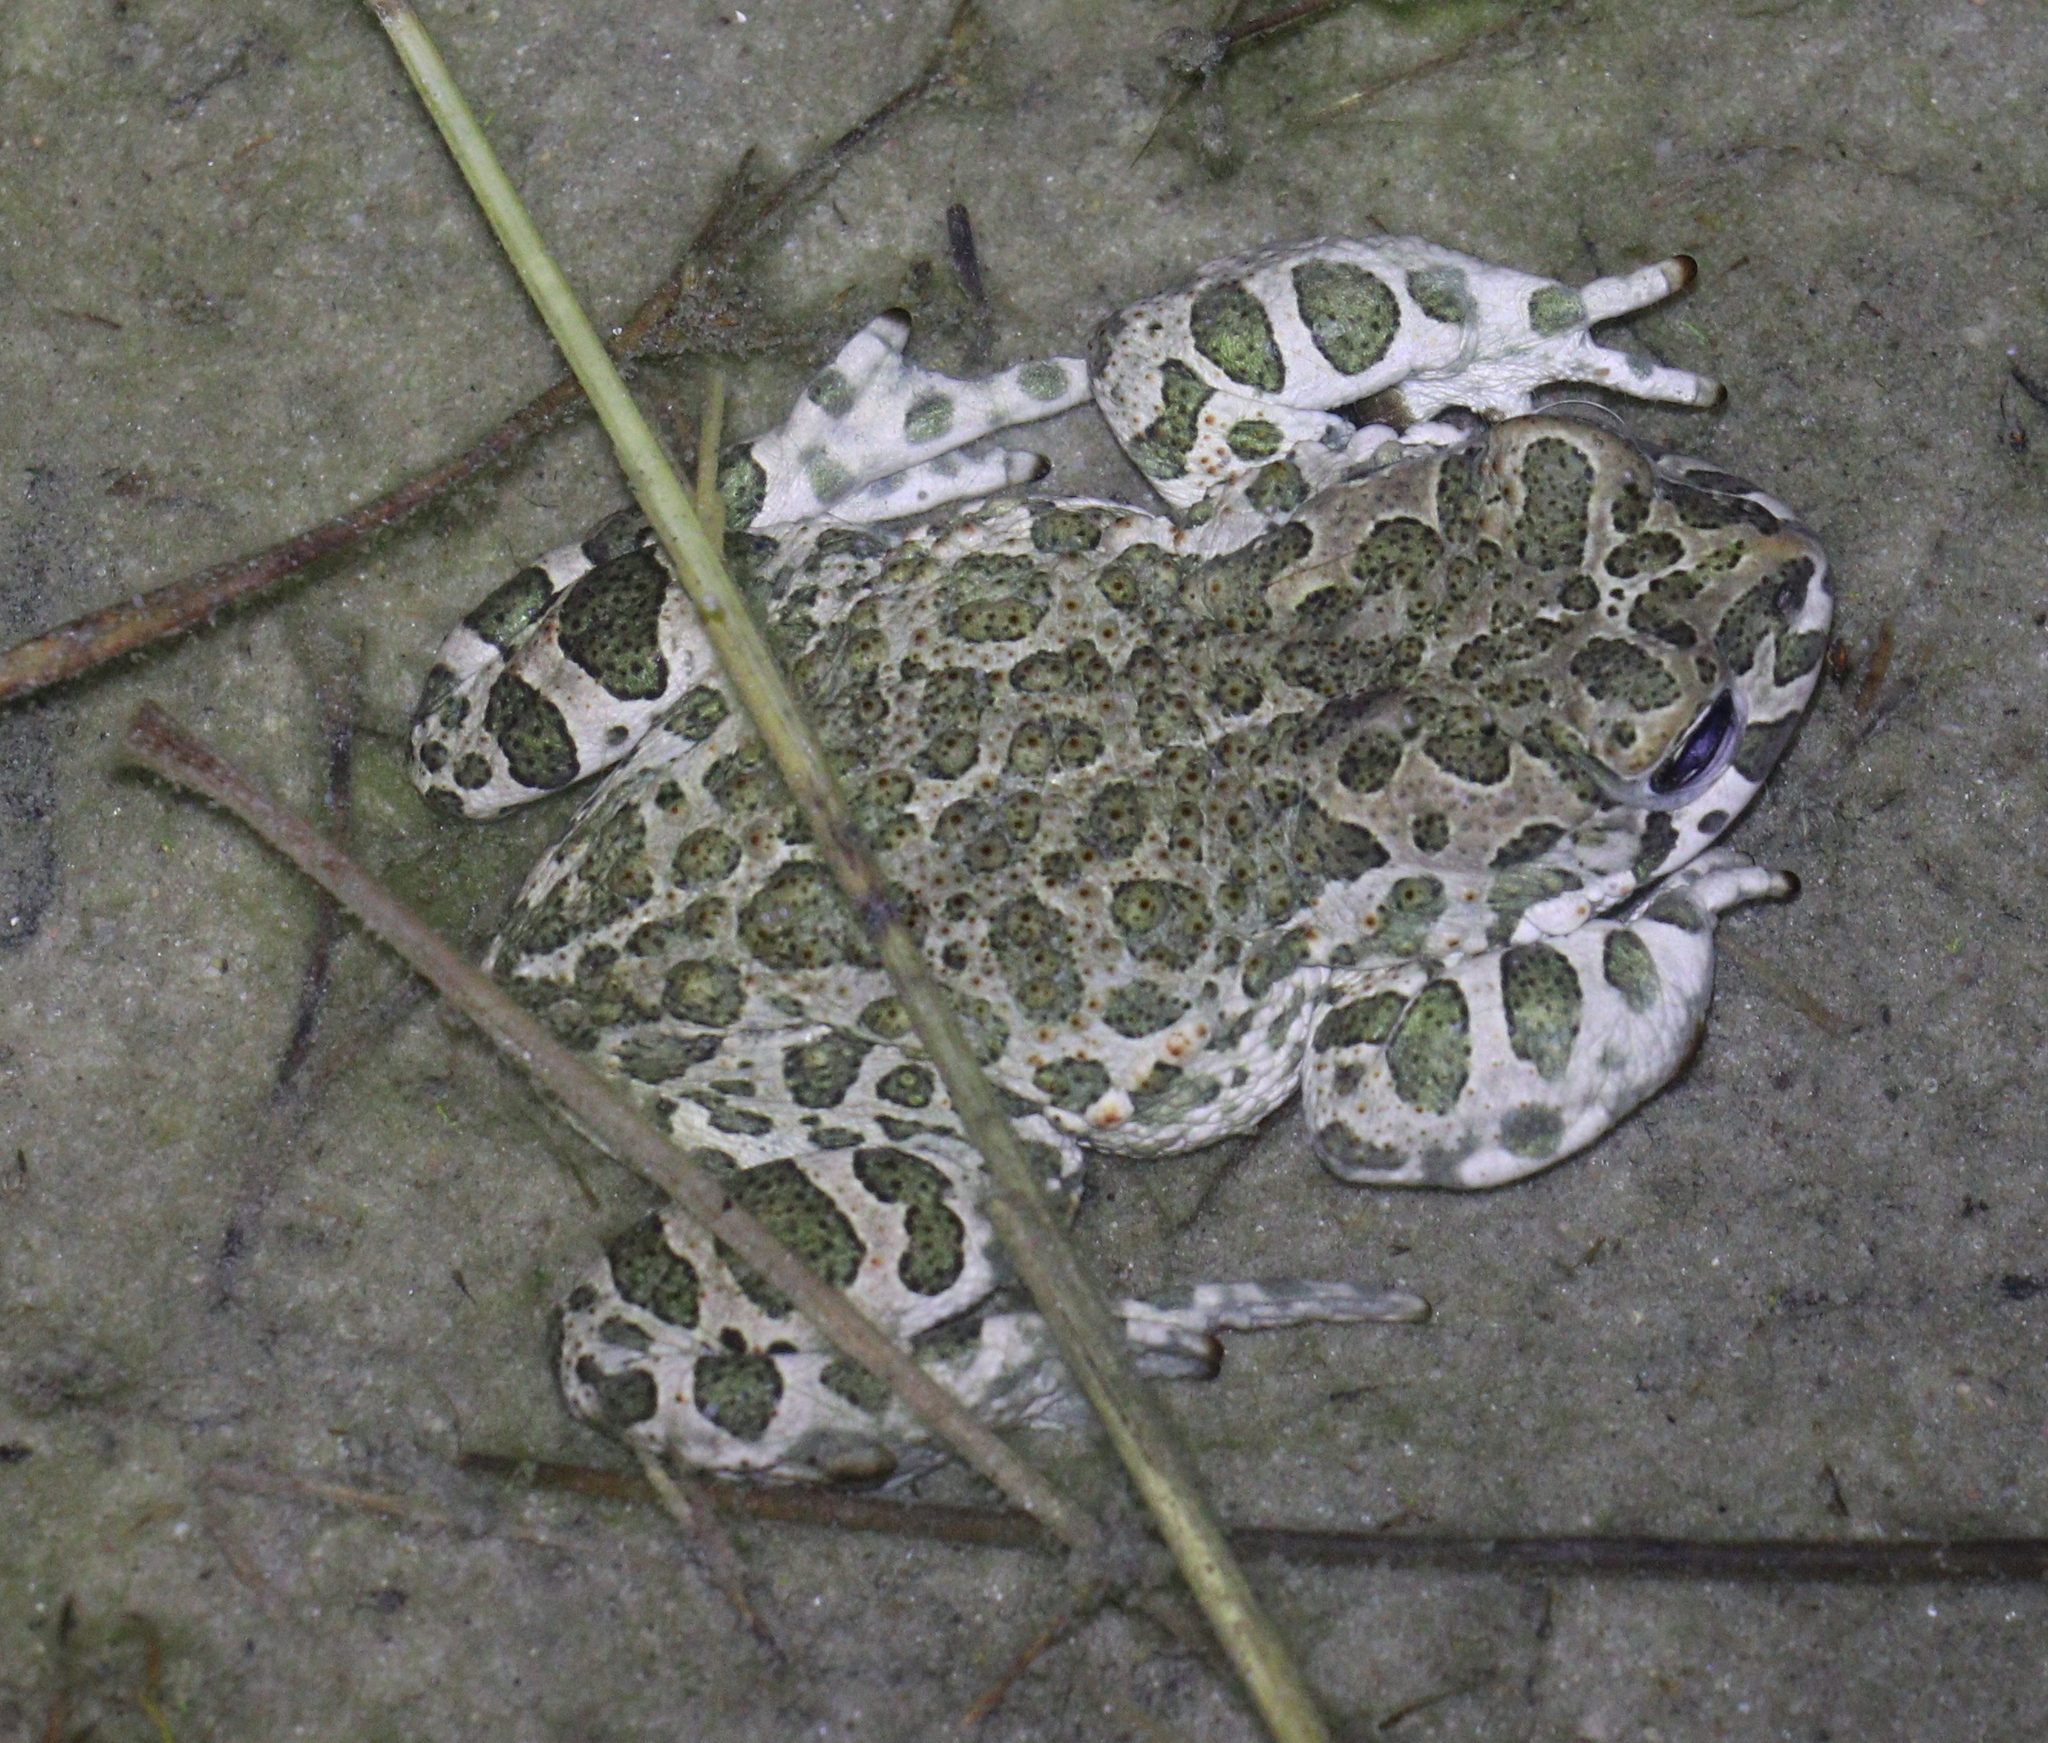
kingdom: Animalia
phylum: Chordata
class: Amphibia
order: Anura
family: Bufonidae
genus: Bufotes
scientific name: Bufotes viridis
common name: European green toad
